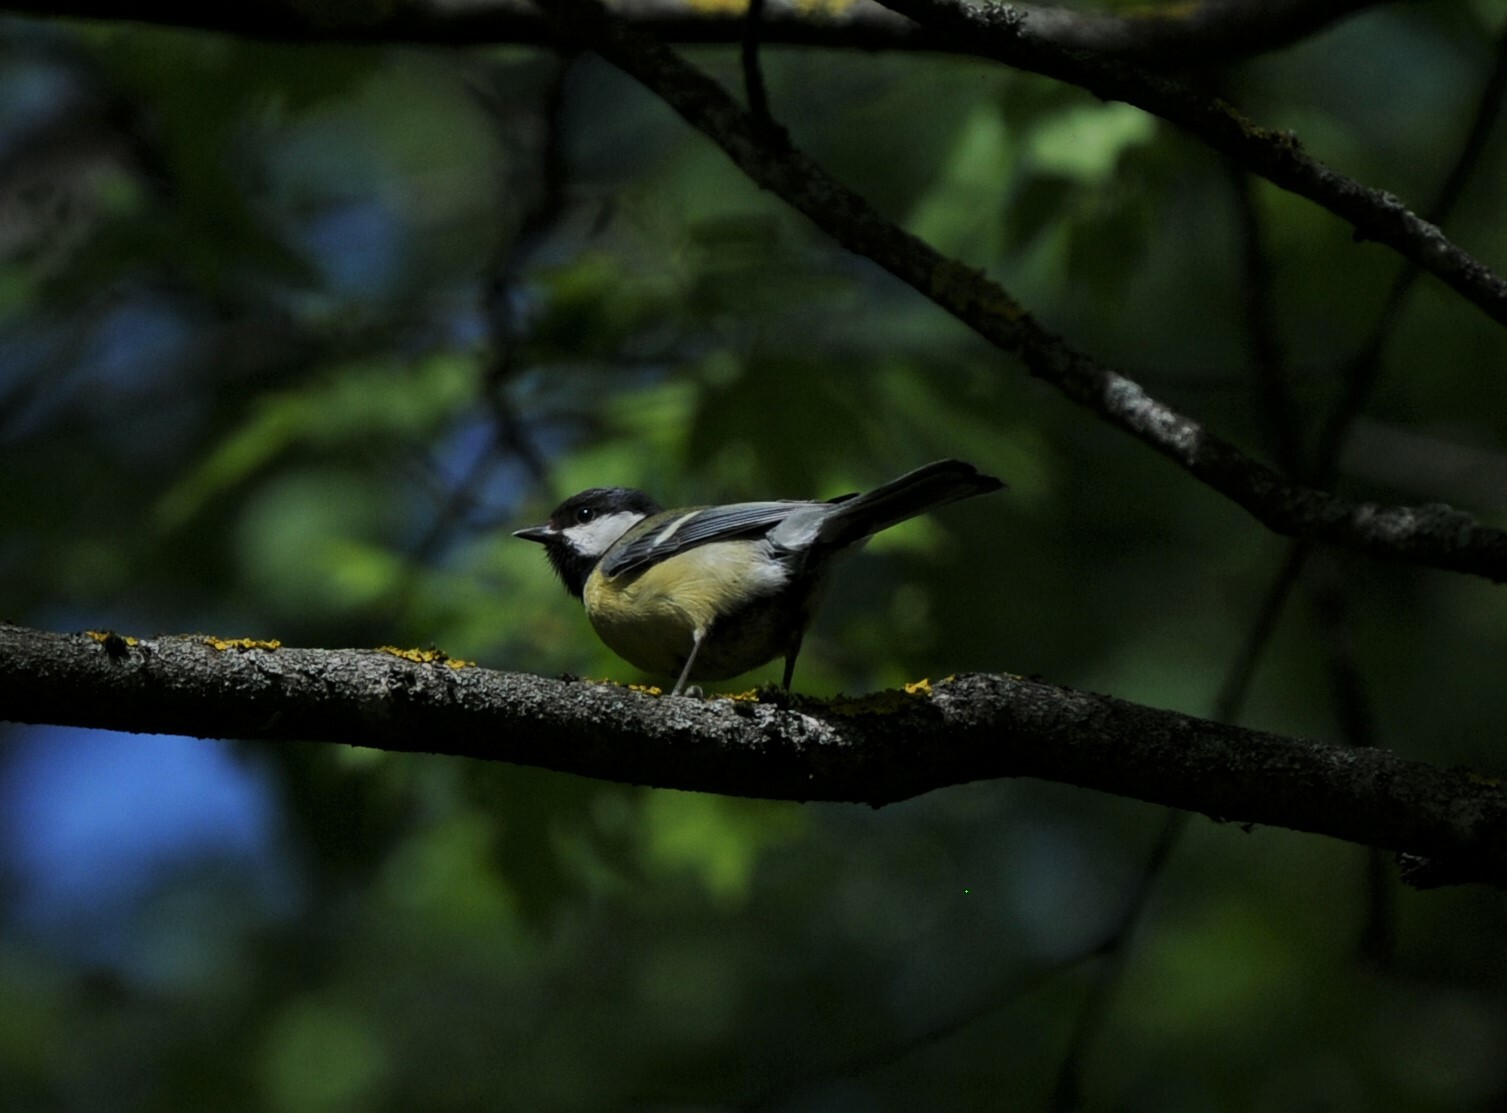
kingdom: Animalia
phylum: Chordata
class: Aves
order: Passeriformes
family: Paridae
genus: Parus
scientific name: Parus major
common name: Great tit
